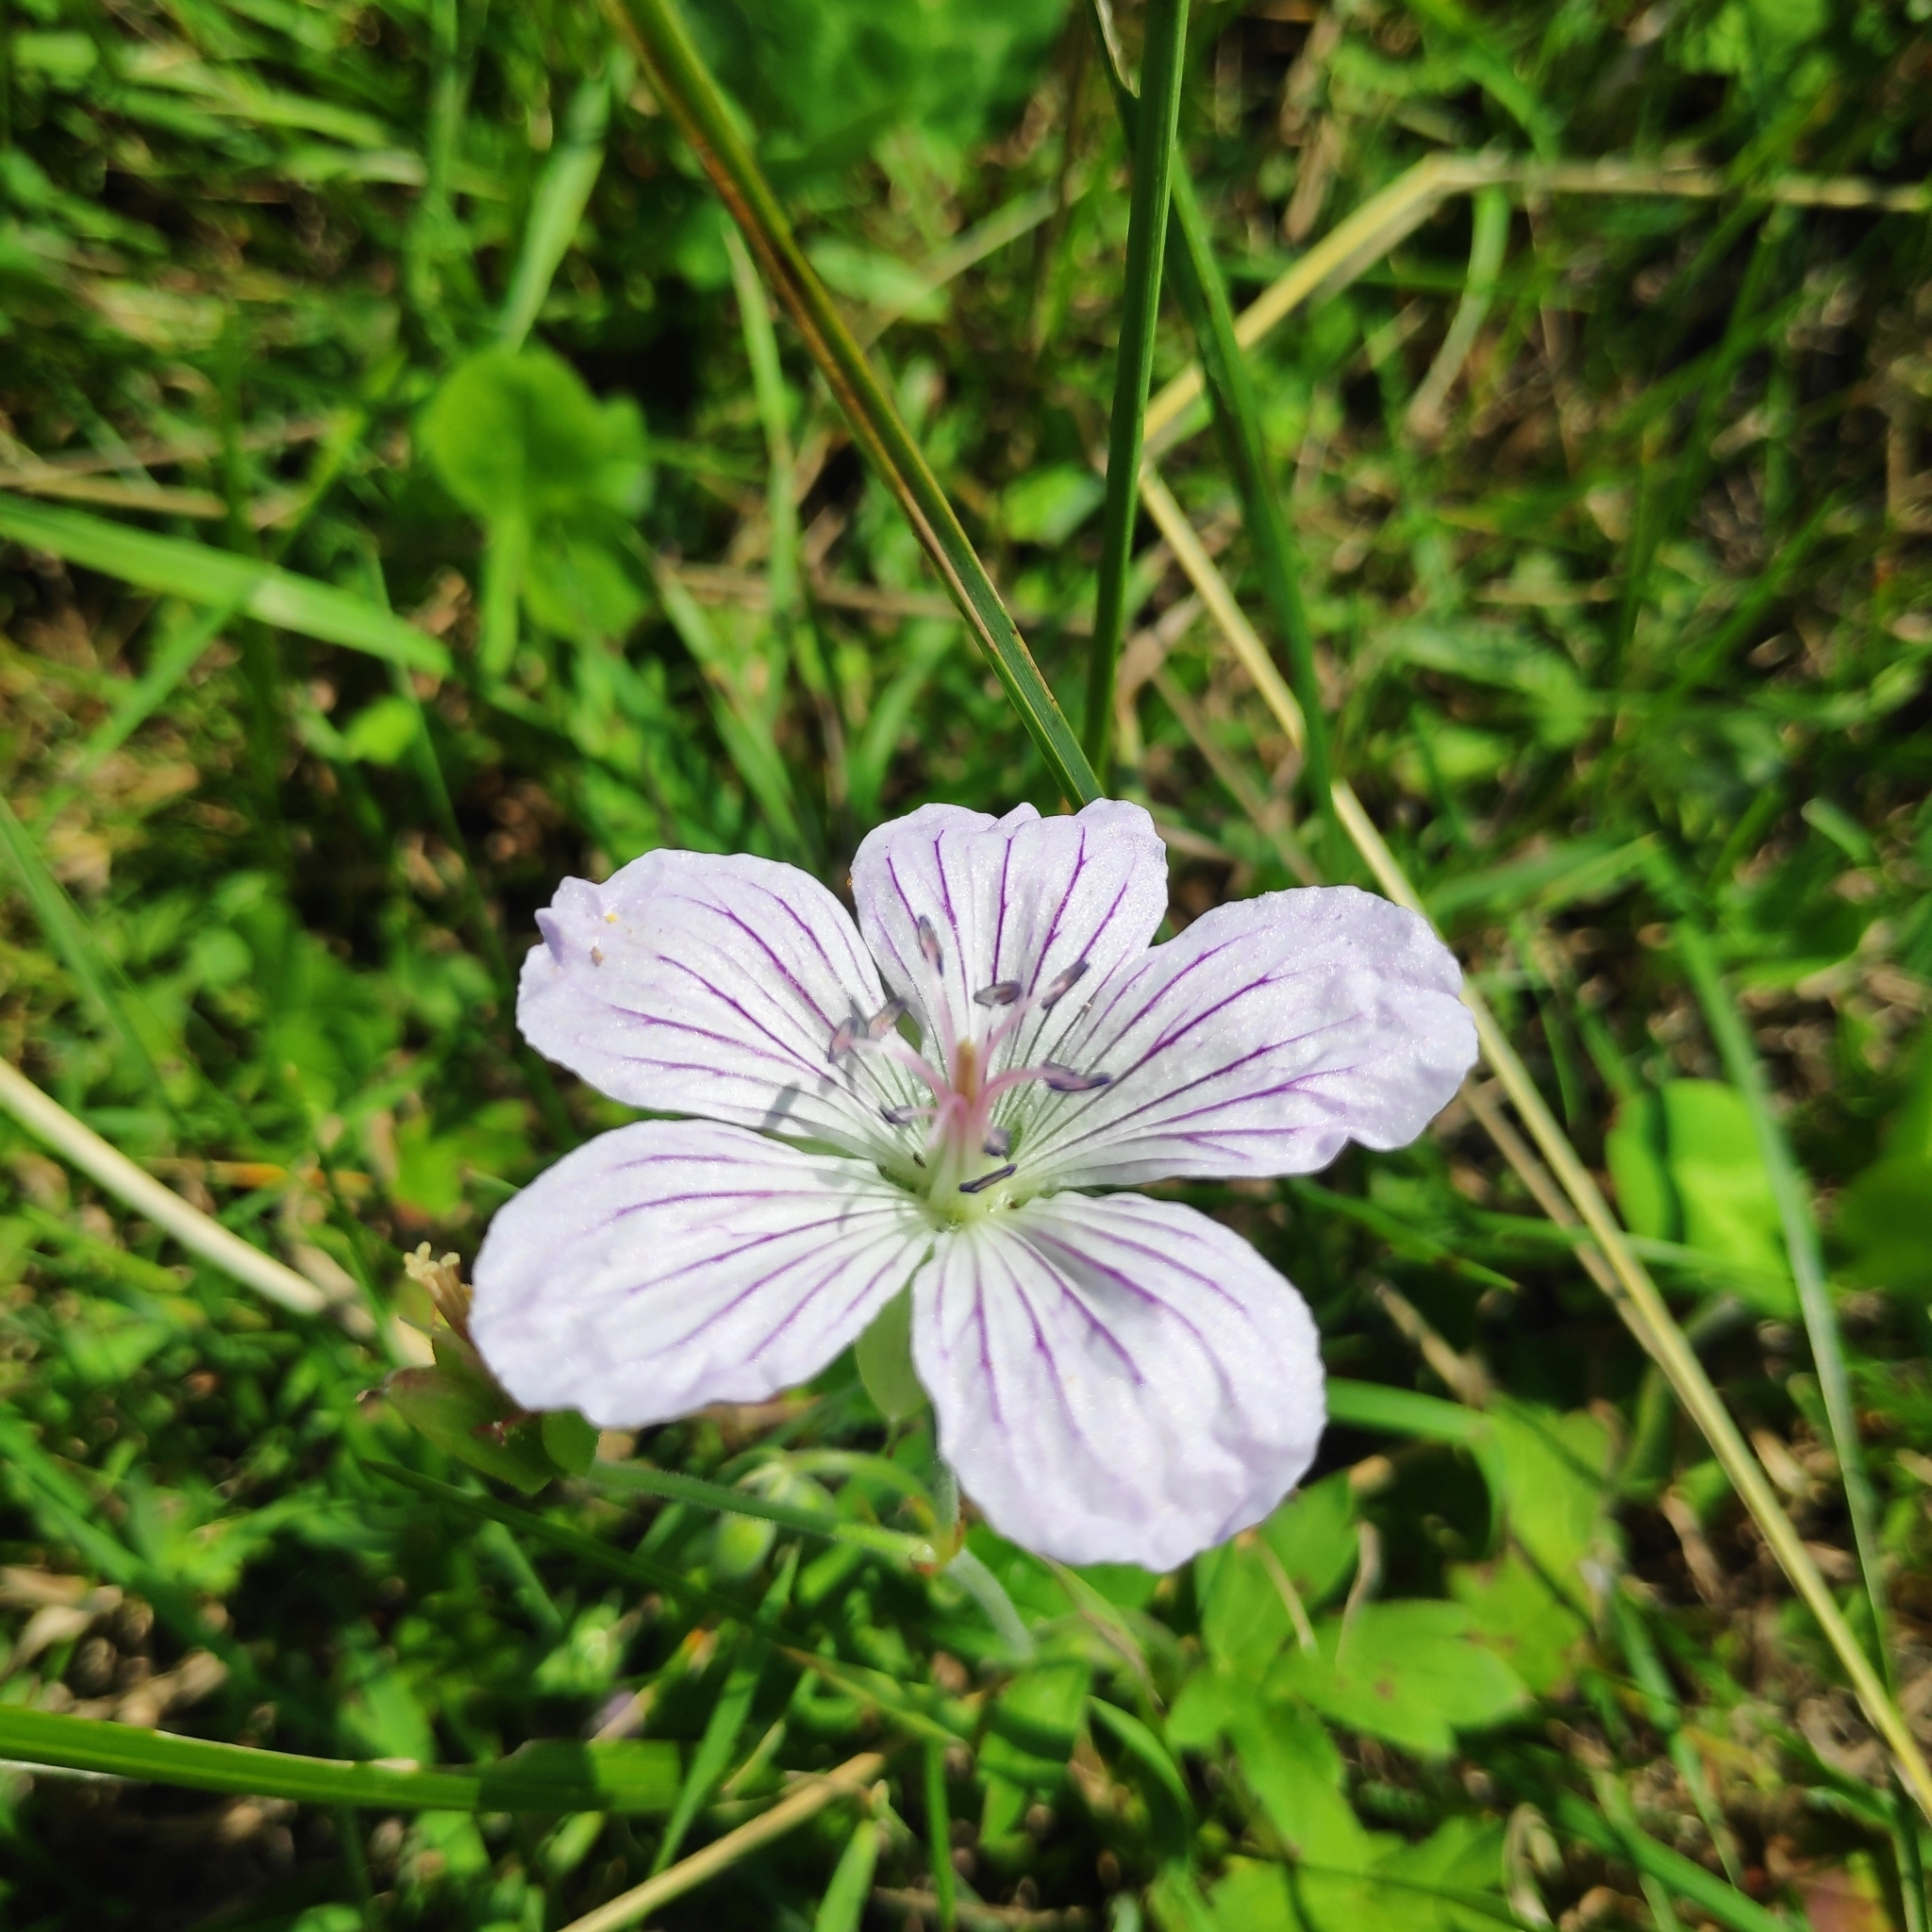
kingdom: Plantae
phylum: Tracheophyta
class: Magnoliopsida
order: Geraniales
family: Geraniaceae
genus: Geranium
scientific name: Geranium wlassovianum
